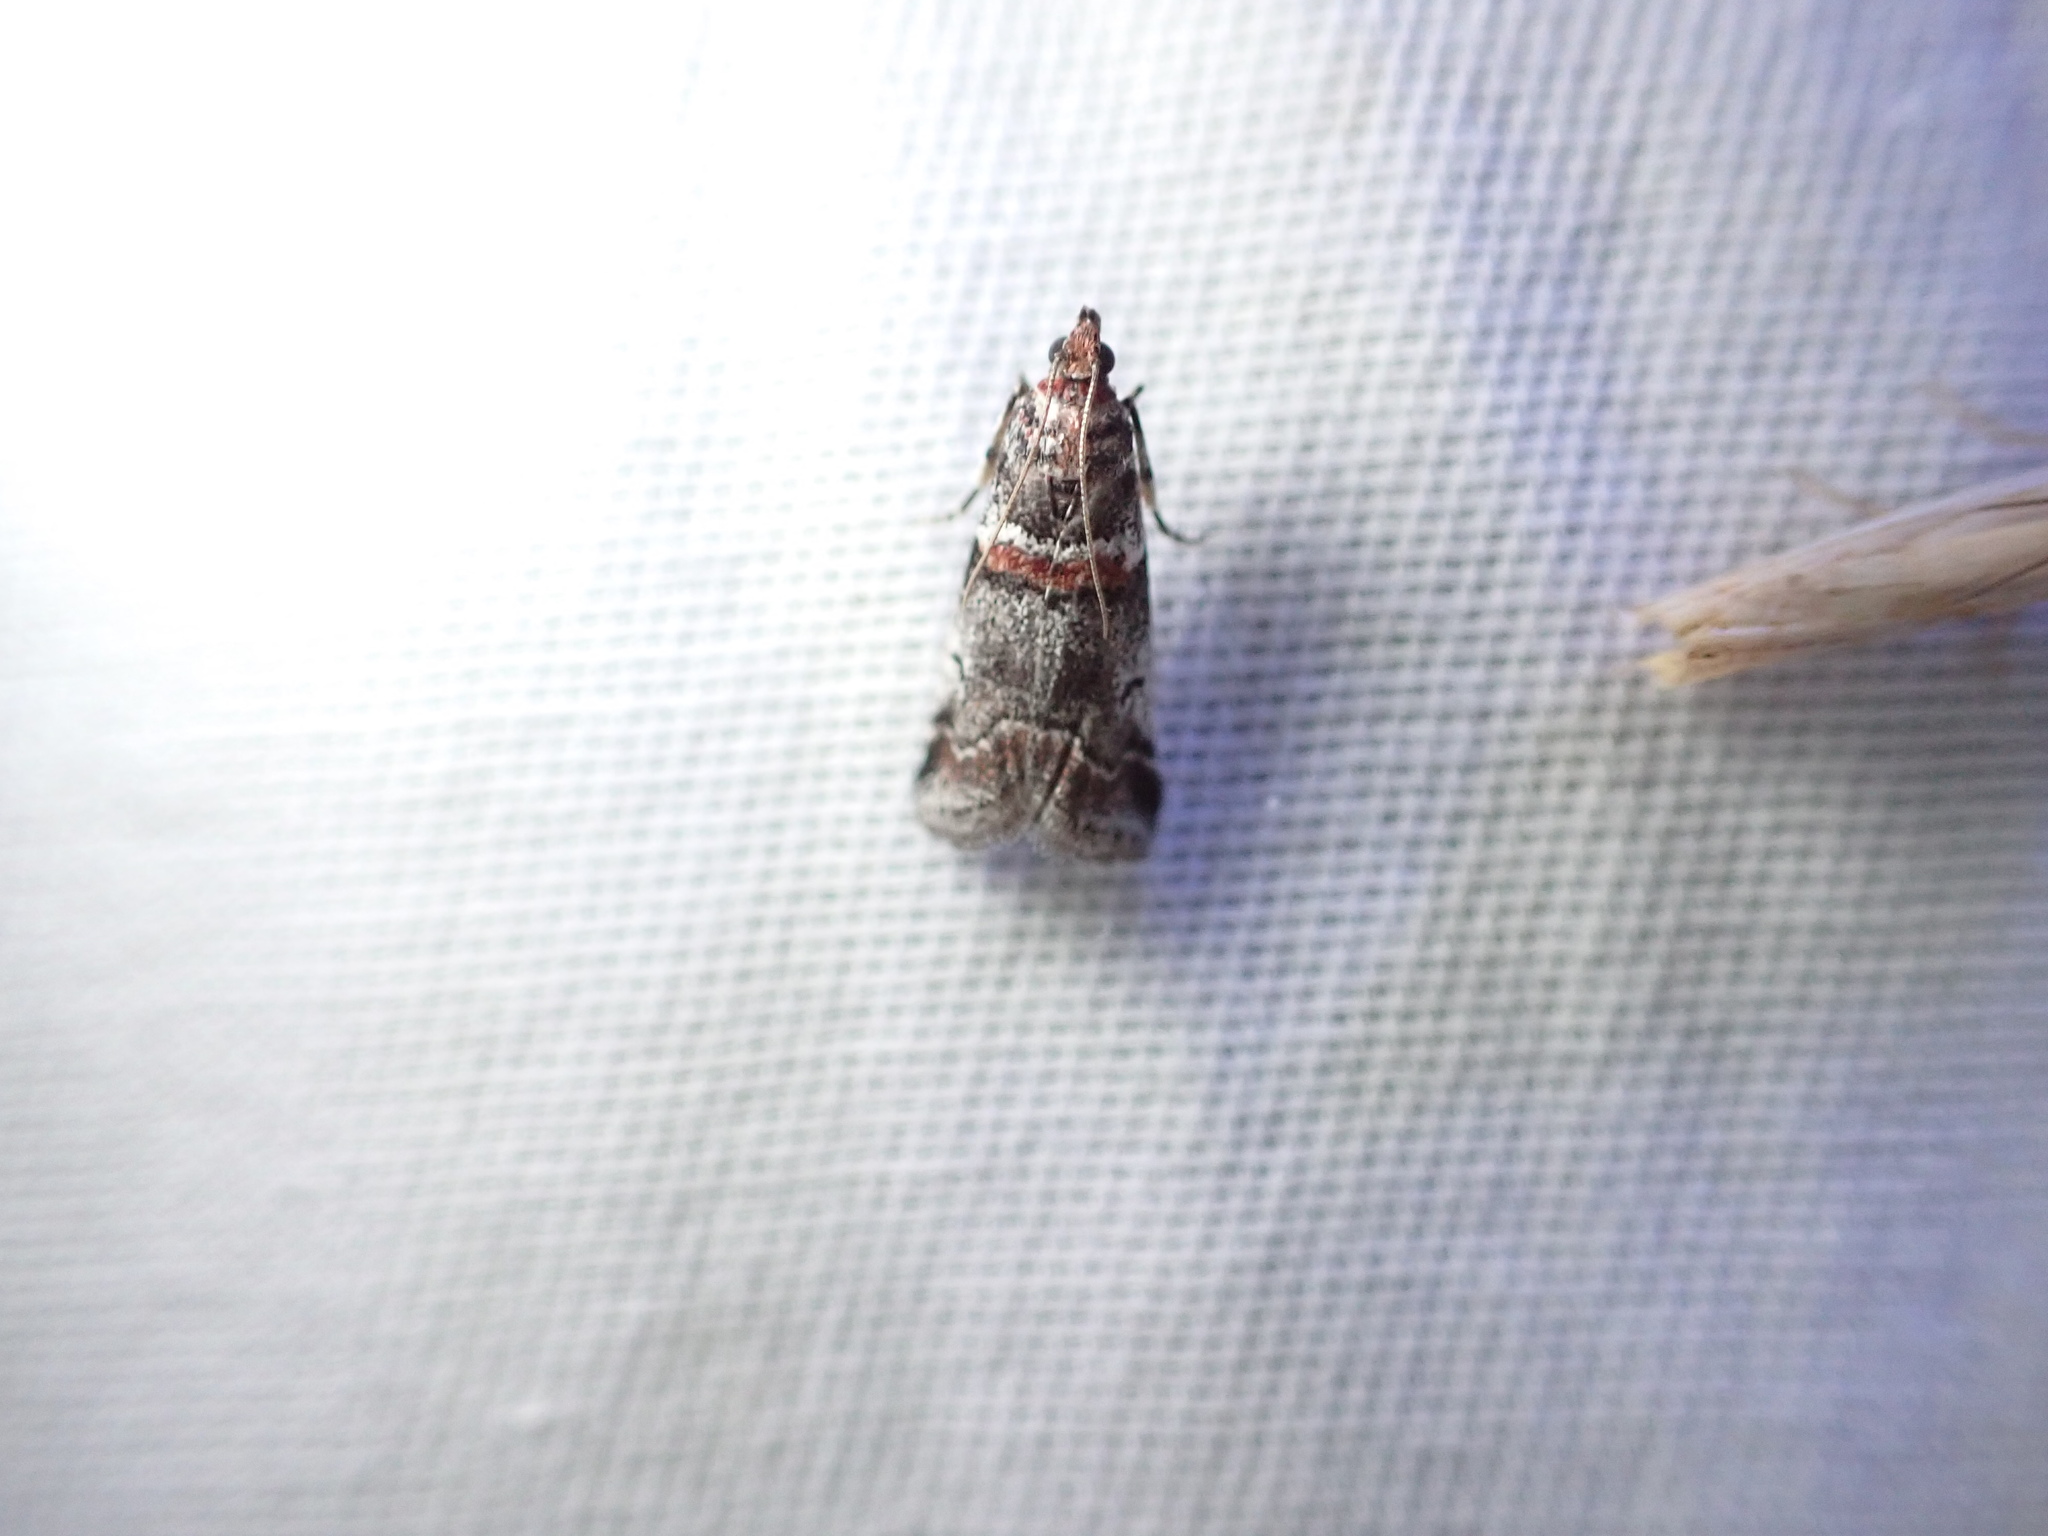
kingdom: Animalia
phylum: Arthropoda
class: Insecta
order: Lepidoptera
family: Pyralidae
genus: Acrobasis
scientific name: Acrobasis tricolorella
